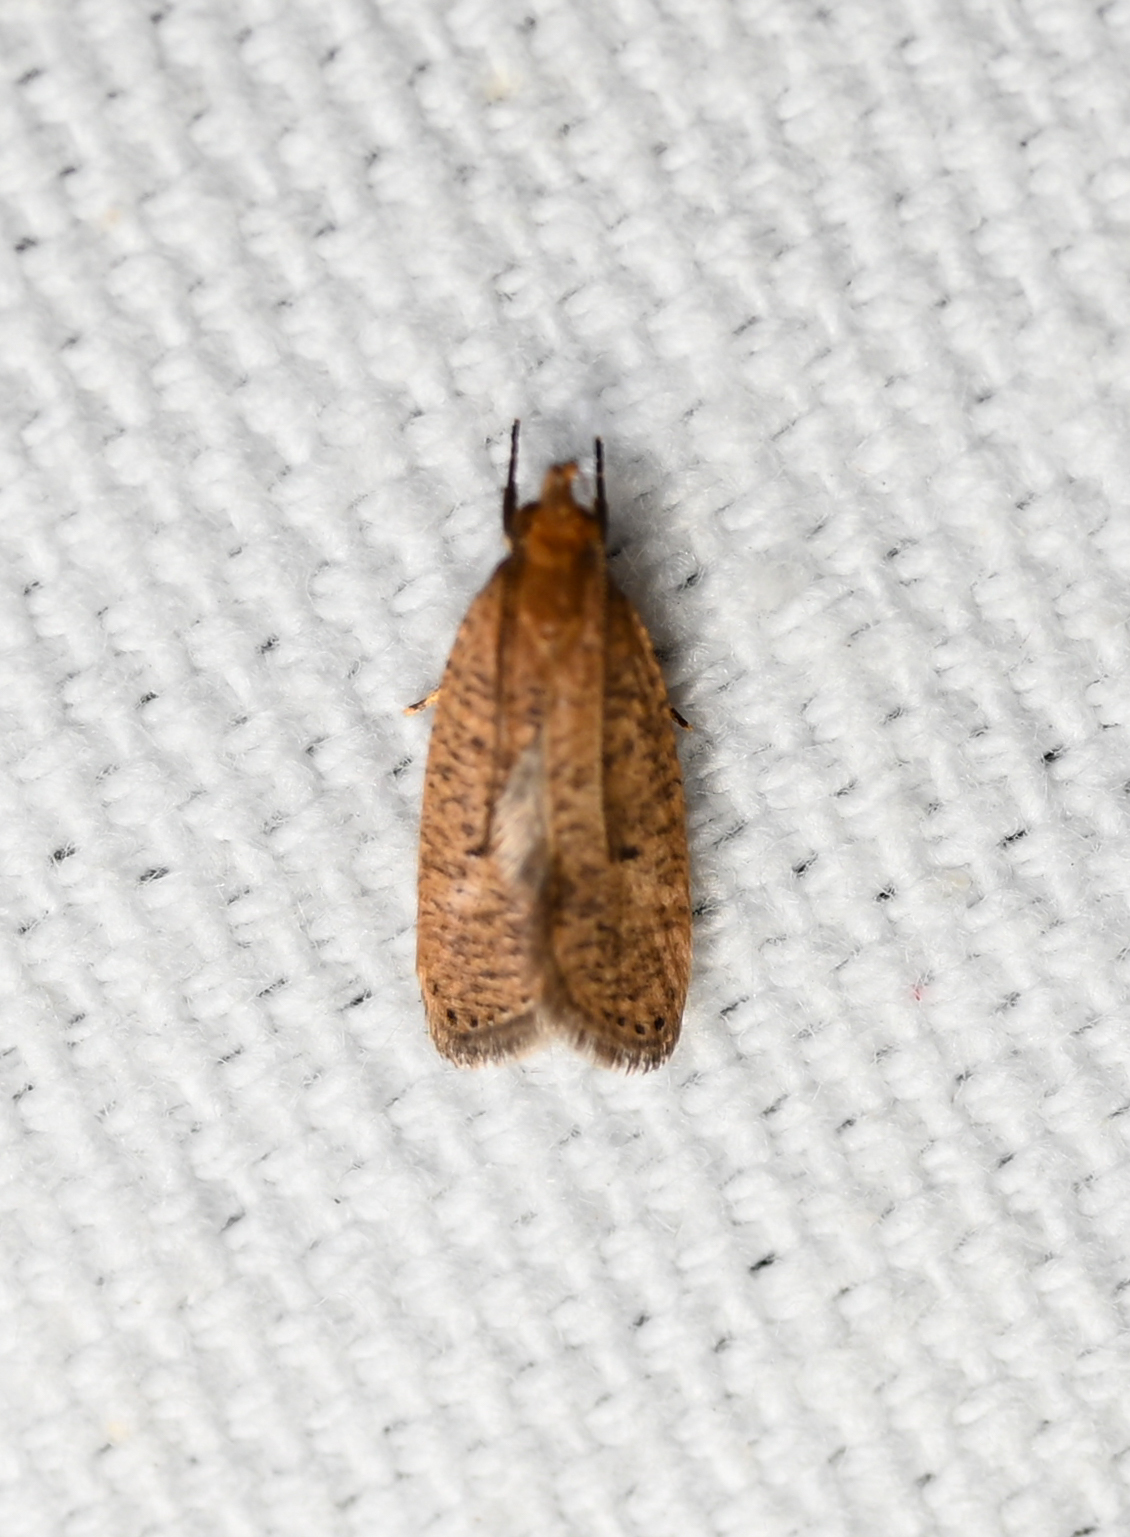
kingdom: Animalia
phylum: Arthropoda
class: Insecta
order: Lepidoptera
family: Depressariidae
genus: Psilocorsis
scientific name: Psilocorsis reflexella
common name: Dotted leaftier moth
